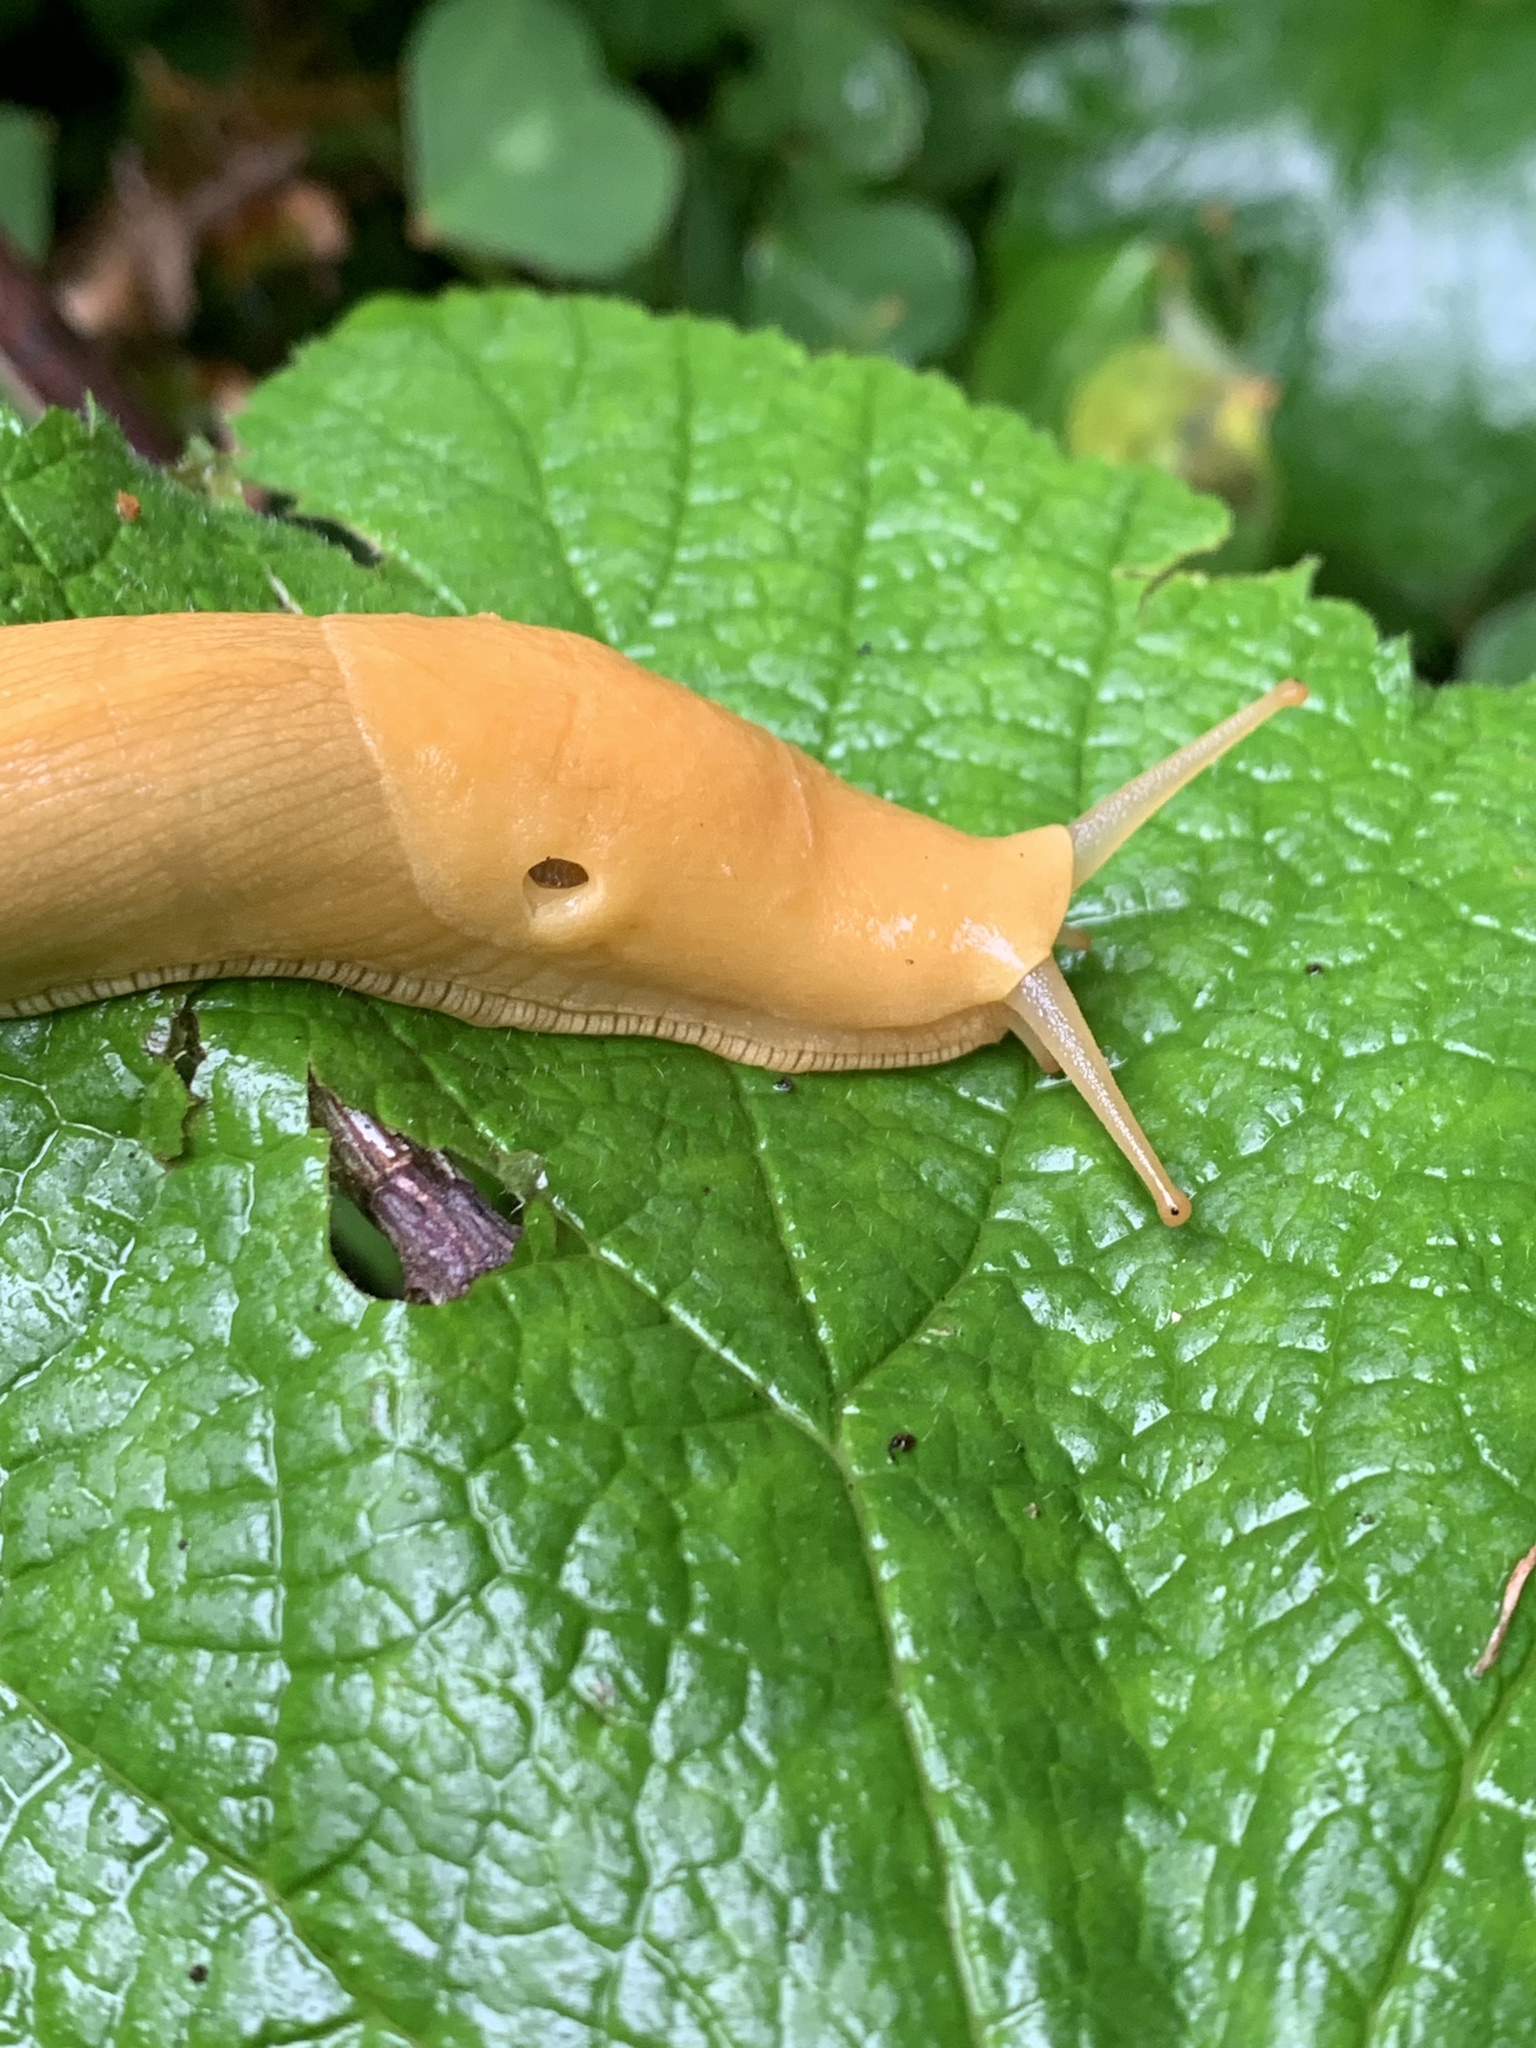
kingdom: Animalia
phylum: Mollusca
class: Gastropoda
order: Stylommatophora
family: Ariolimacidae
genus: Ariolimax
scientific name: Ariolimax columbianus
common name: Pacific banana slug
